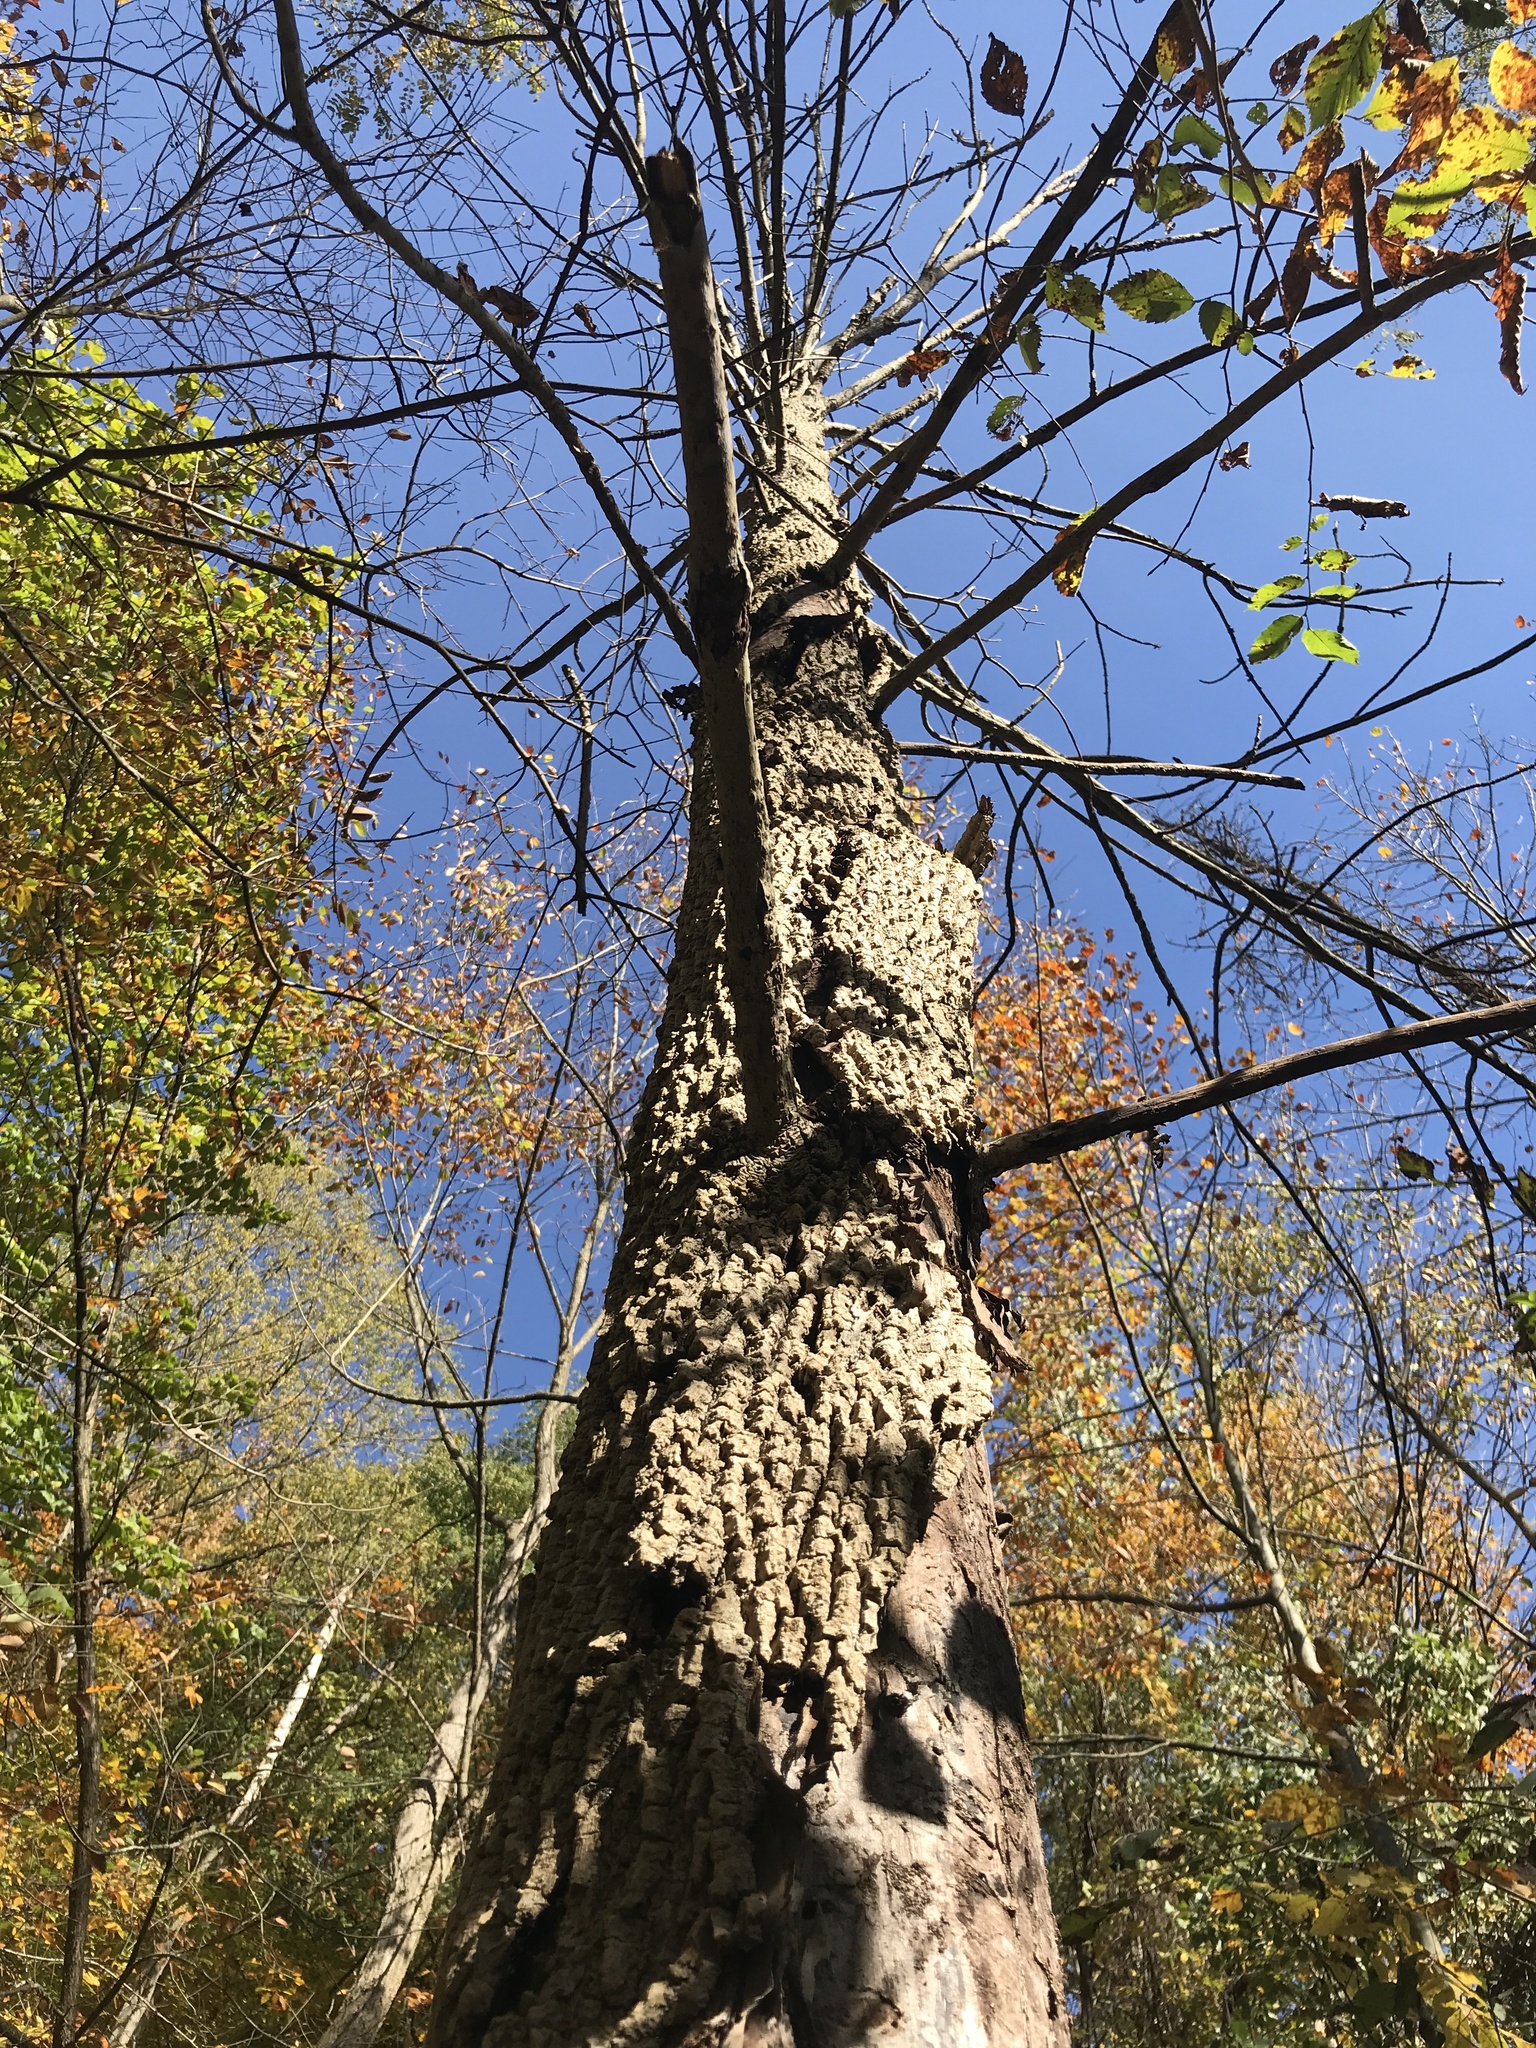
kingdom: Animalia
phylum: Arthropoda
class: Insecta
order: Coleoptera
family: Buprestidae
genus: Agrilus
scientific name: Agrilus planipennis
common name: Emerald ash borer
